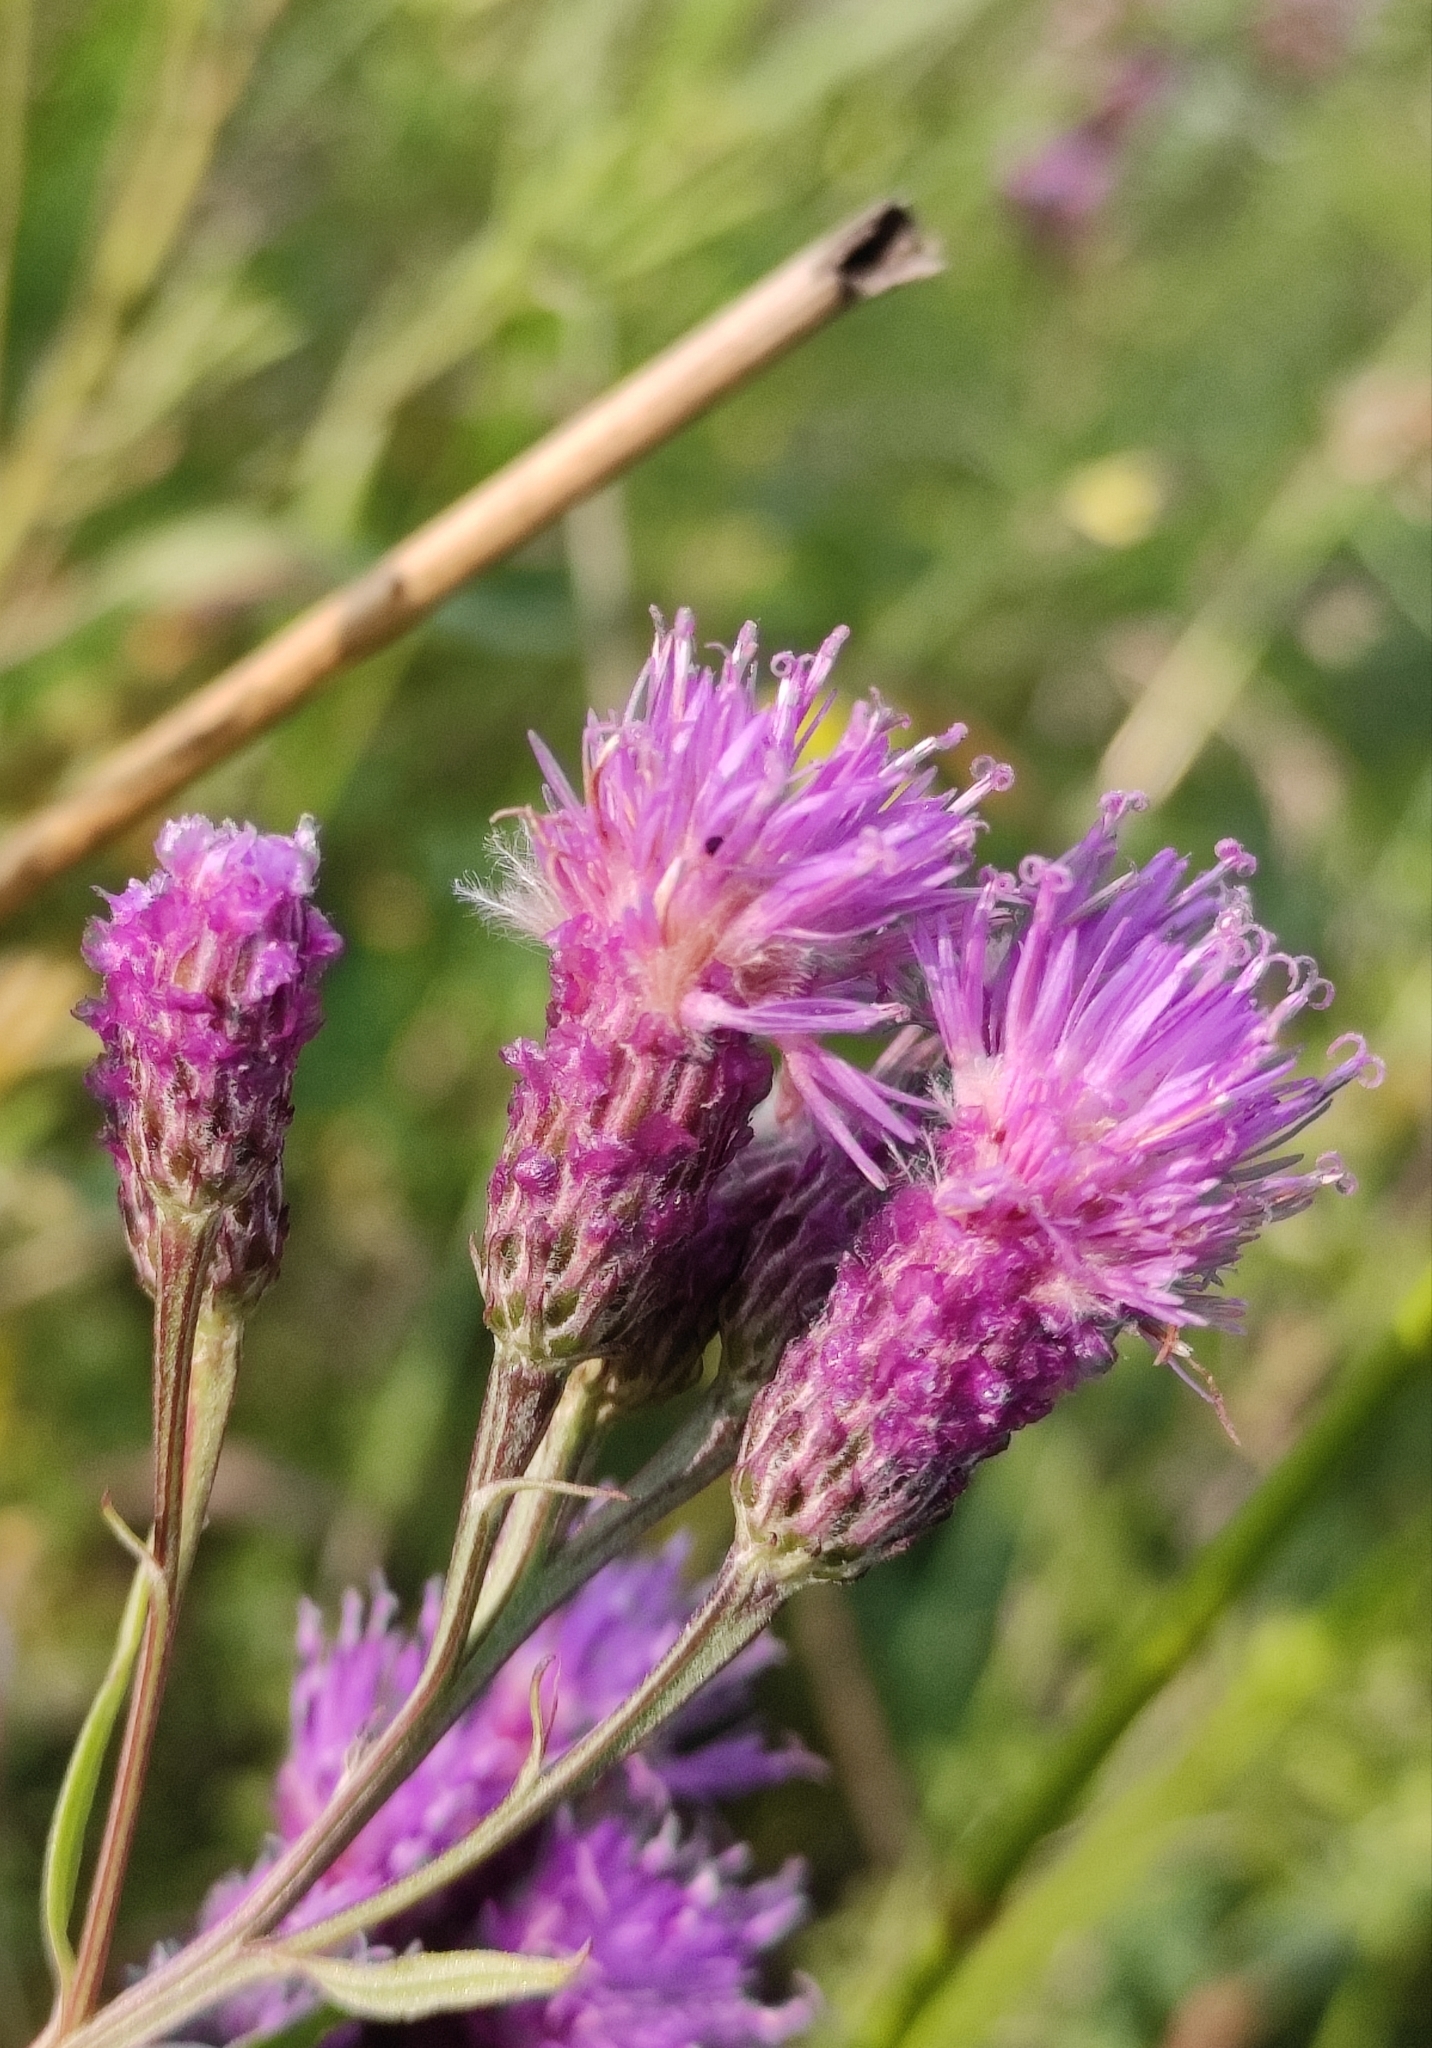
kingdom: Plantae
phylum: Tracheophyta
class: Magnoliopsida
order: Asterales
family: Asteraceae
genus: Saussurea
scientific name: Saussurea amara
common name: Alberta sawwort
